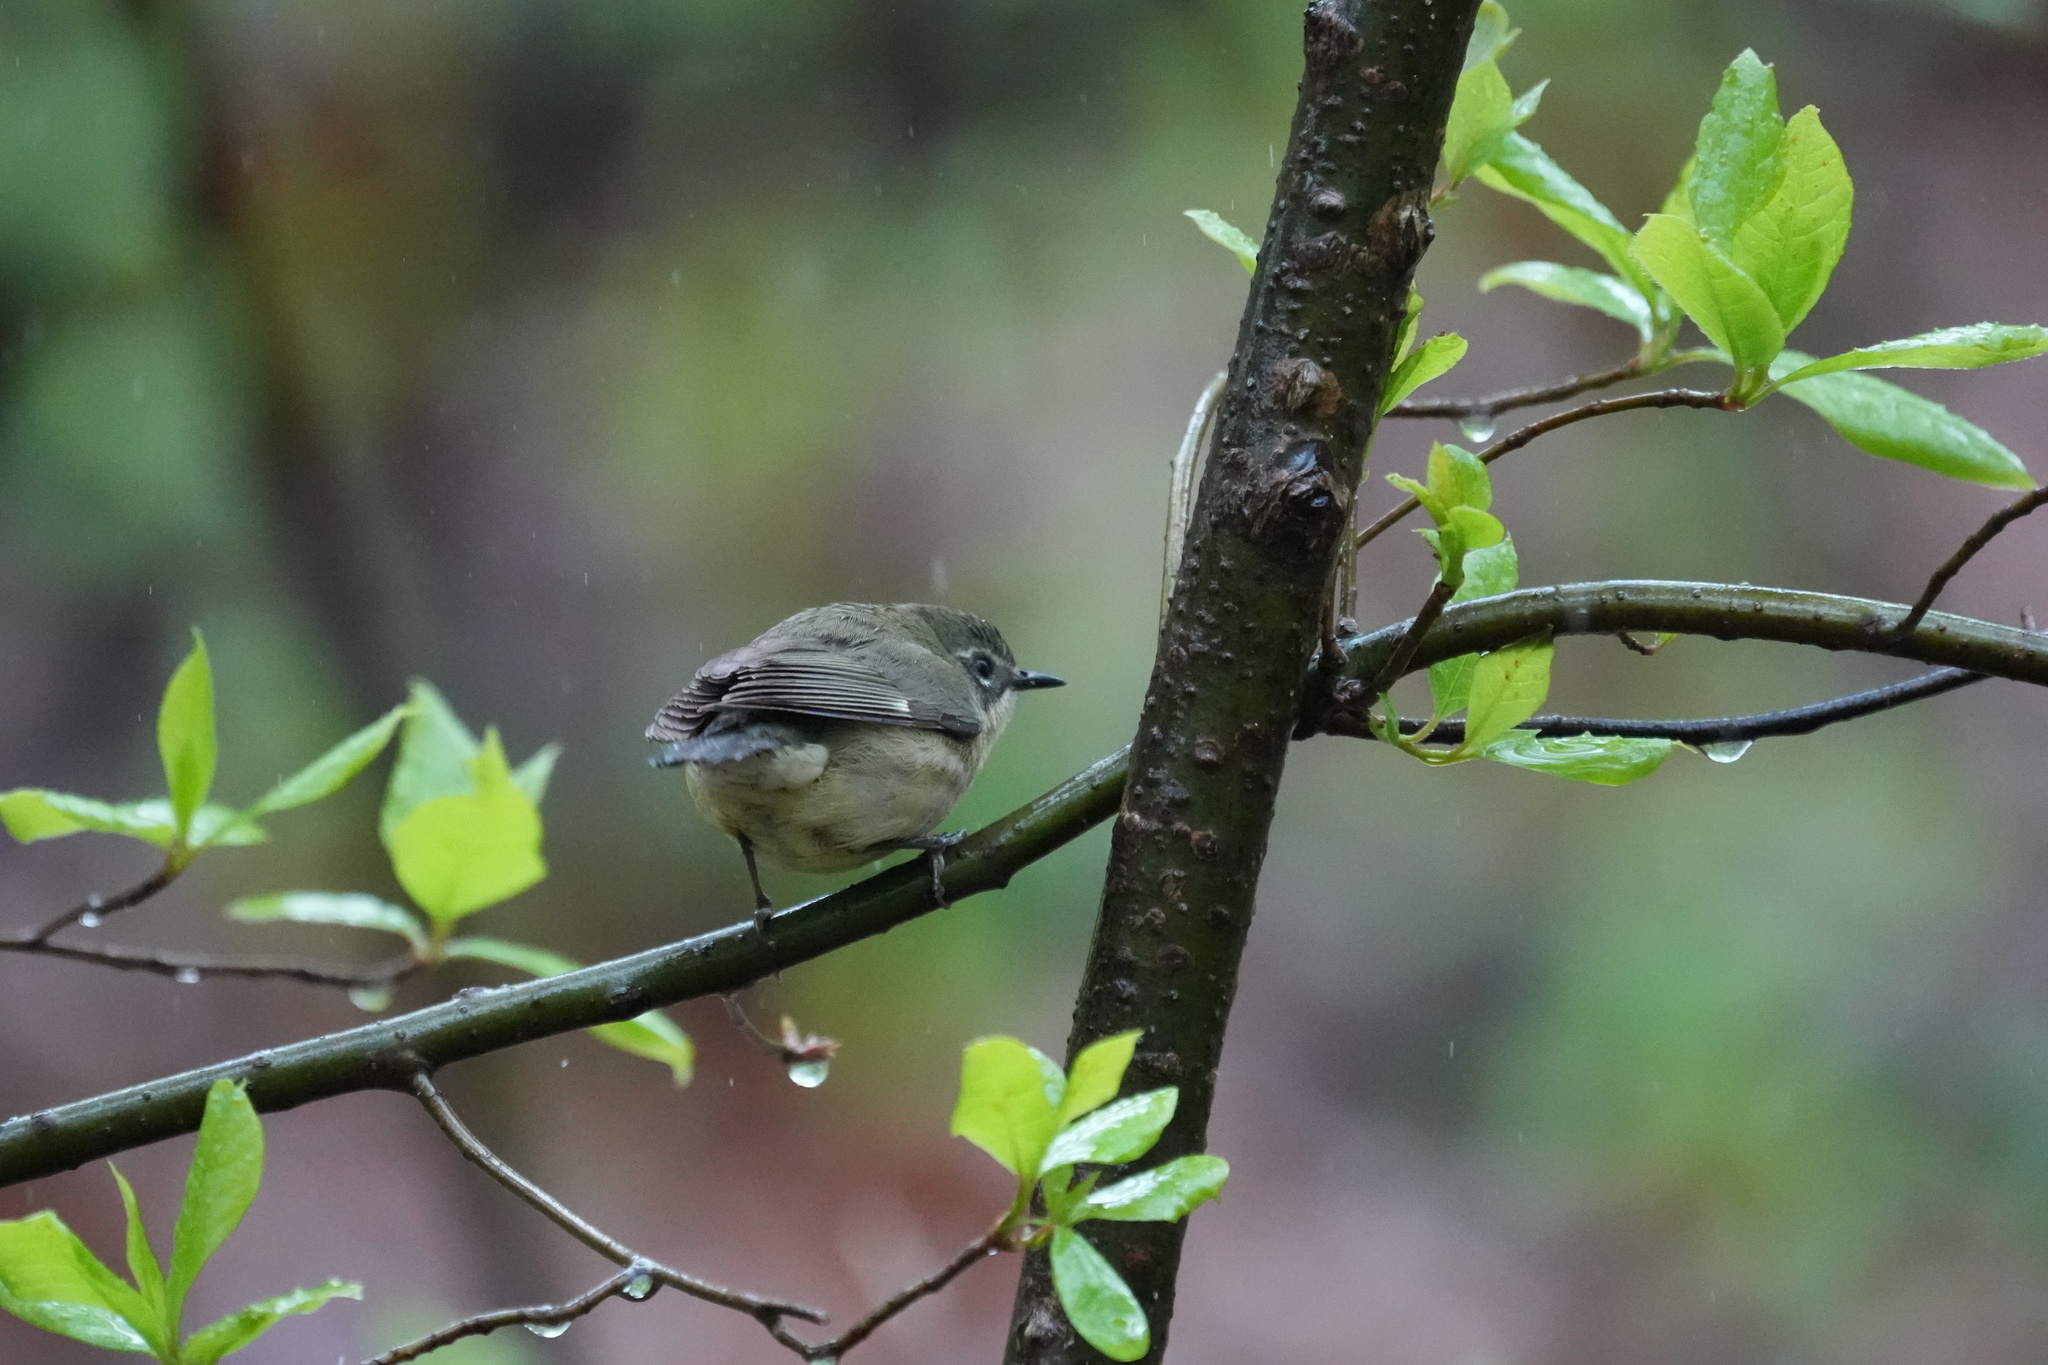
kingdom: Animalia
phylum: Chordata
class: Aves
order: Passeriformes
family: Parulidae
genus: Setophaga
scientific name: Setophaga caerulescens
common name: Black-throated blue warbler
